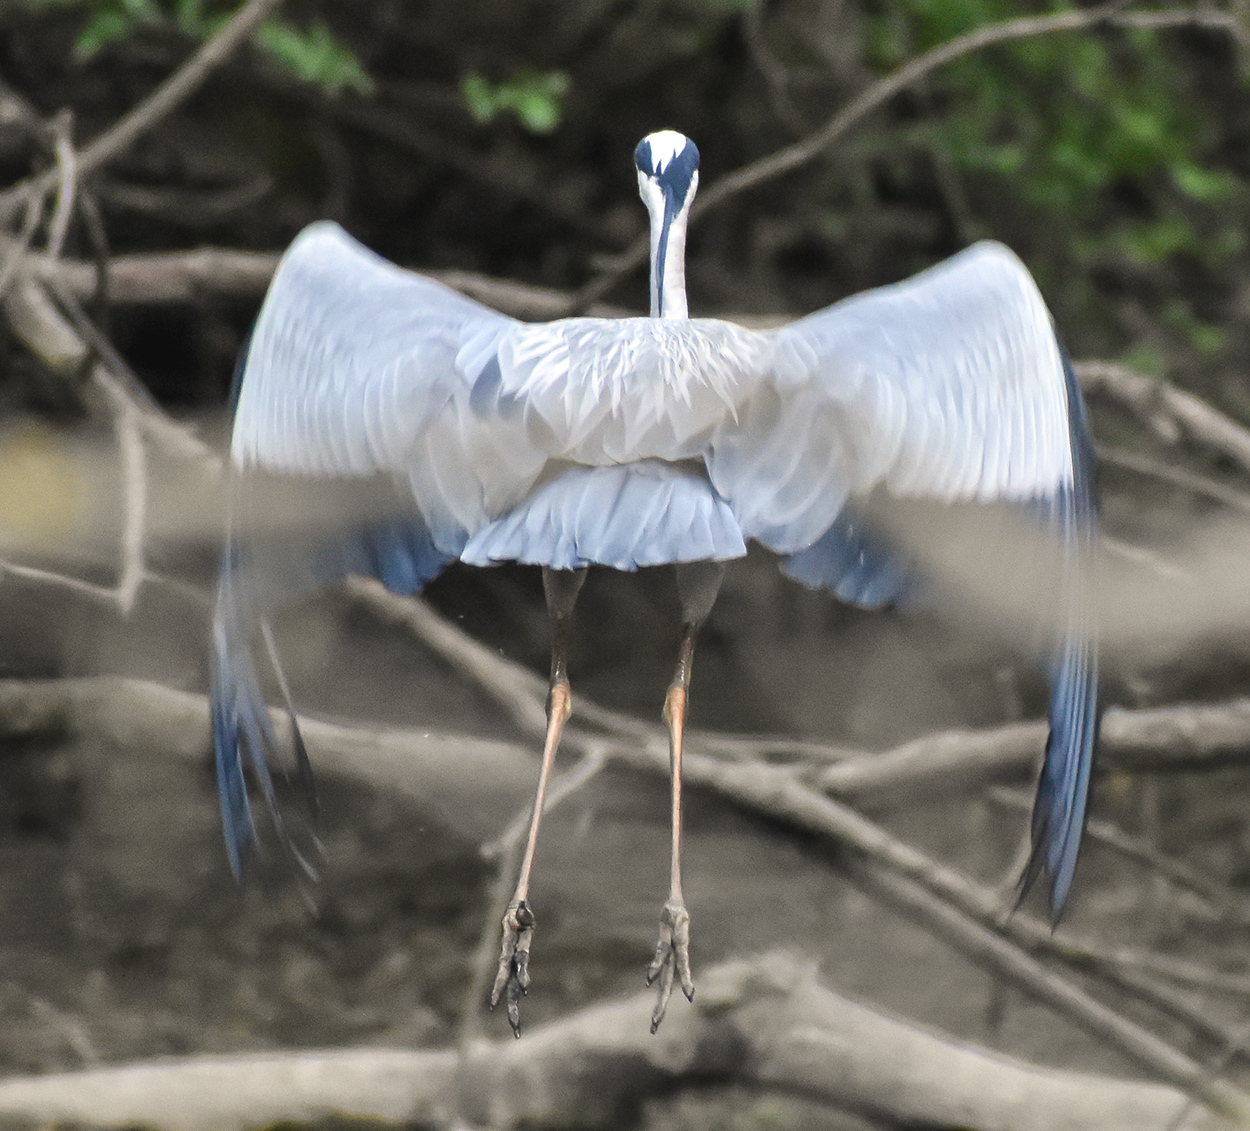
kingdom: Animalia
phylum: Chordata
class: Aves
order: Pelecaniformes
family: Ardeidae
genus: Ardea
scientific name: Ardea cinerea
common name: Grey heron
